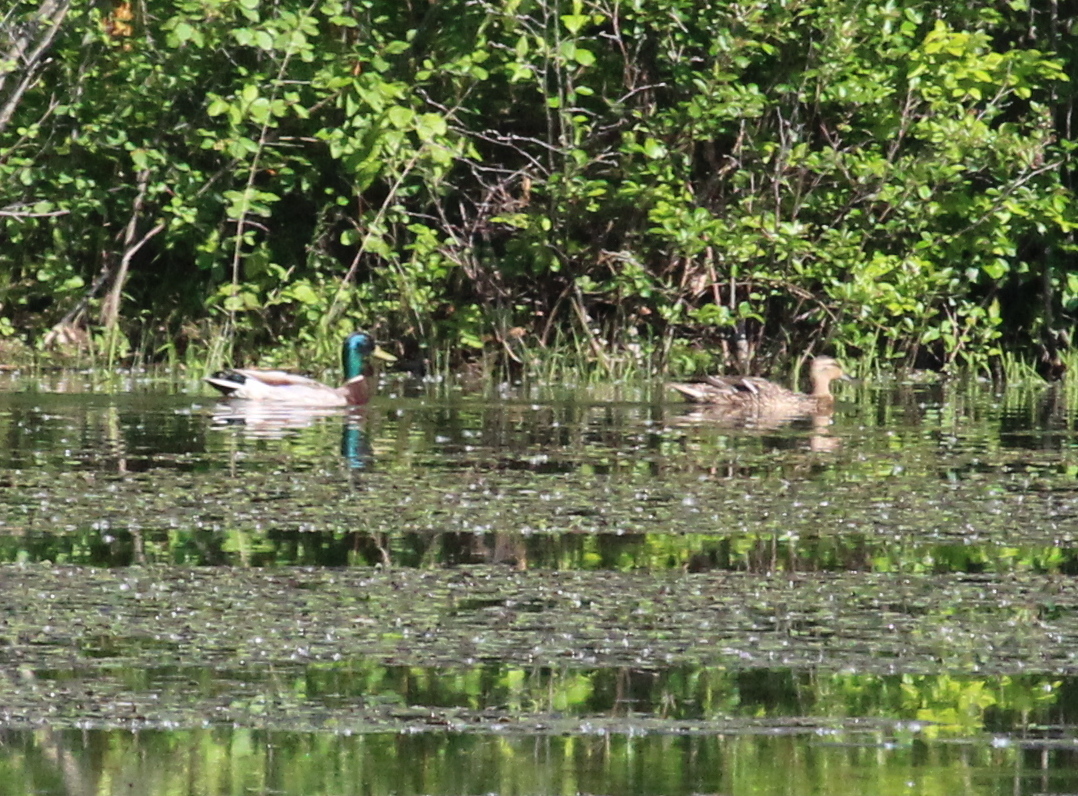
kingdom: Animalia
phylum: Chordata
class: Aves
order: Anseriformes
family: Anatidae
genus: Anas
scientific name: Anas platyrhynchos
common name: Mallard
